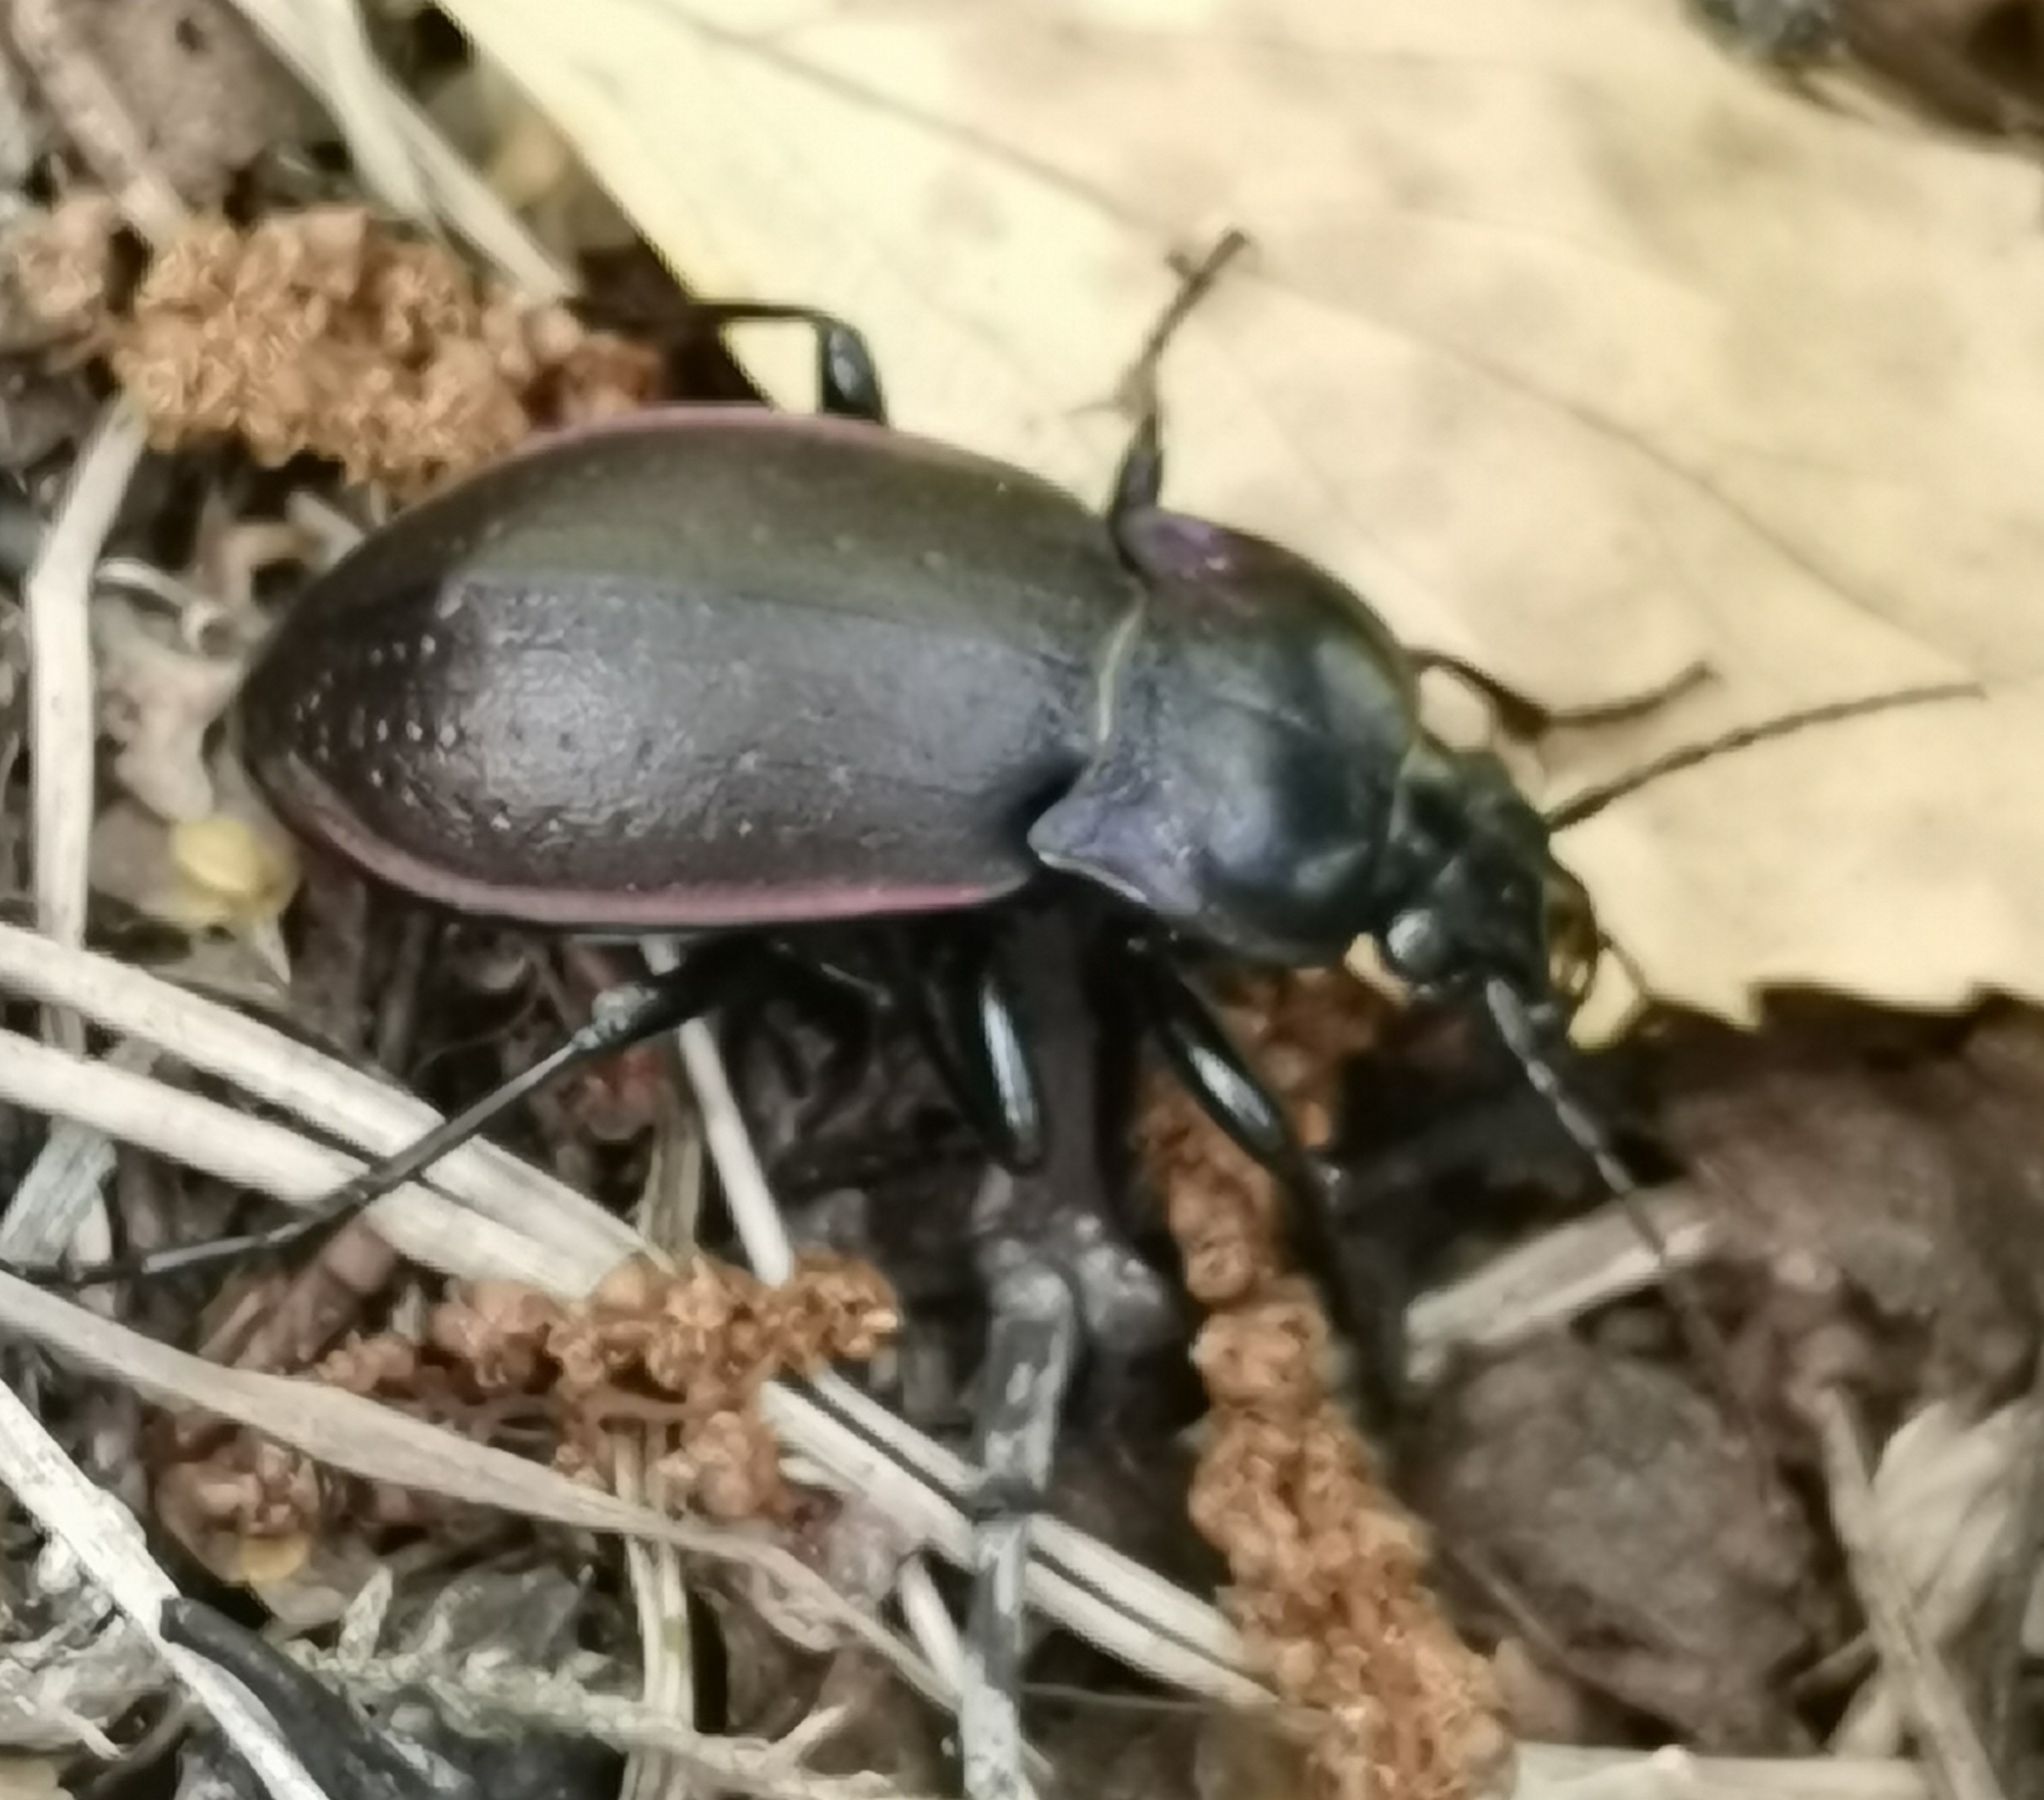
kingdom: Animalia
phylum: Arthropoda
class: Insecta
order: Coleoptera
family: Carabidae
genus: Carabus
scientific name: Carabus nemoralis
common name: European ground beetle
